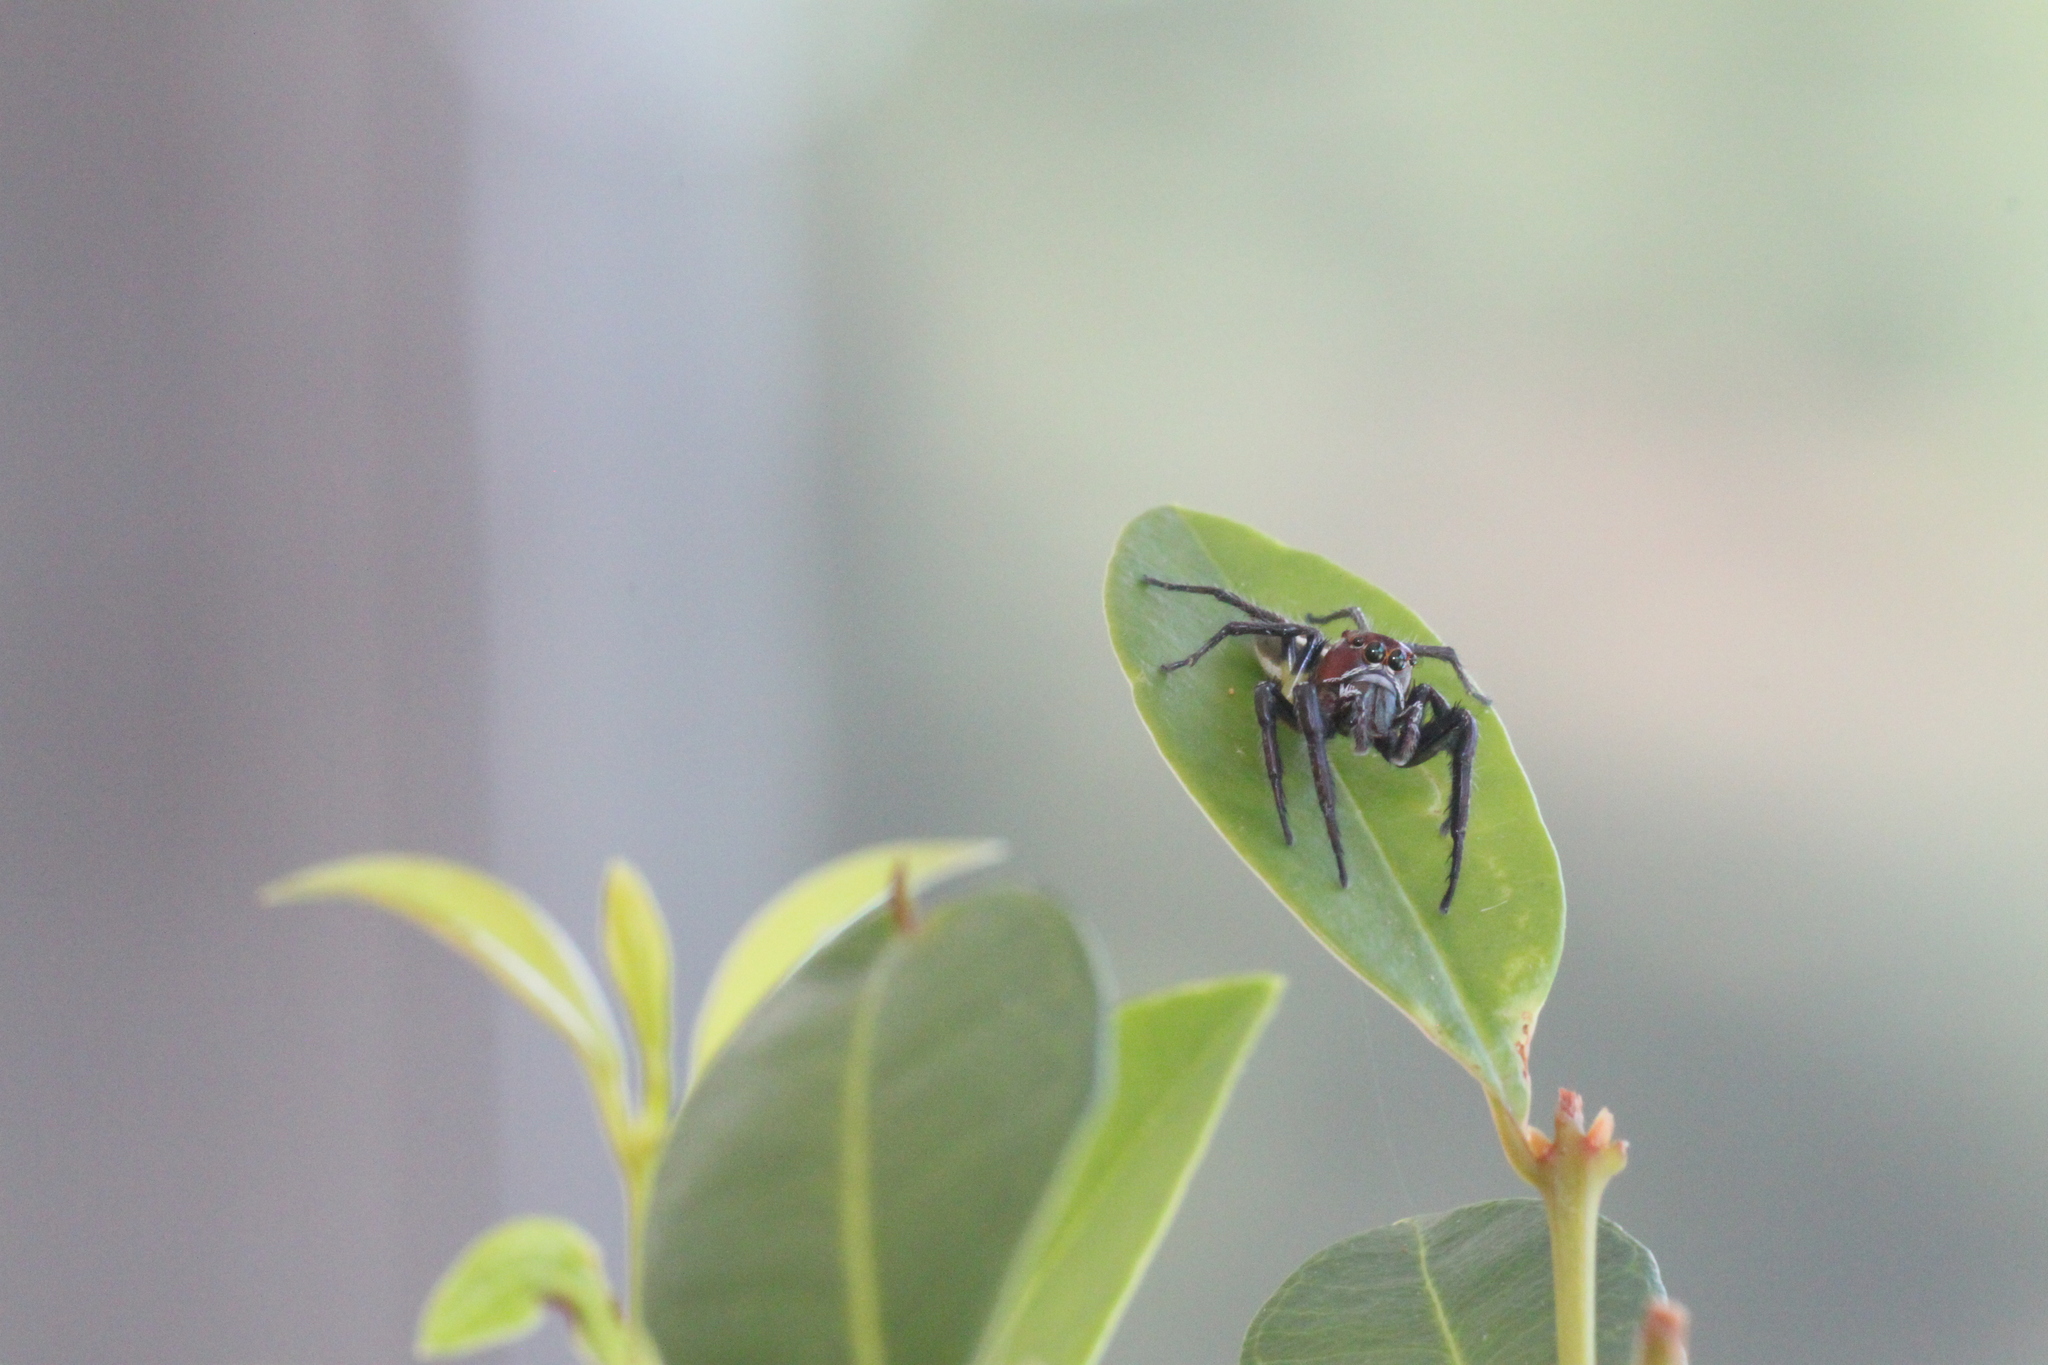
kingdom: Animalia
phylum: Arthropoda
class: Arachnida
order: Araneae
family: Salticidae
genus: Colonus
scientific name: Colonus sylvanus
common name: Jumping spiders
